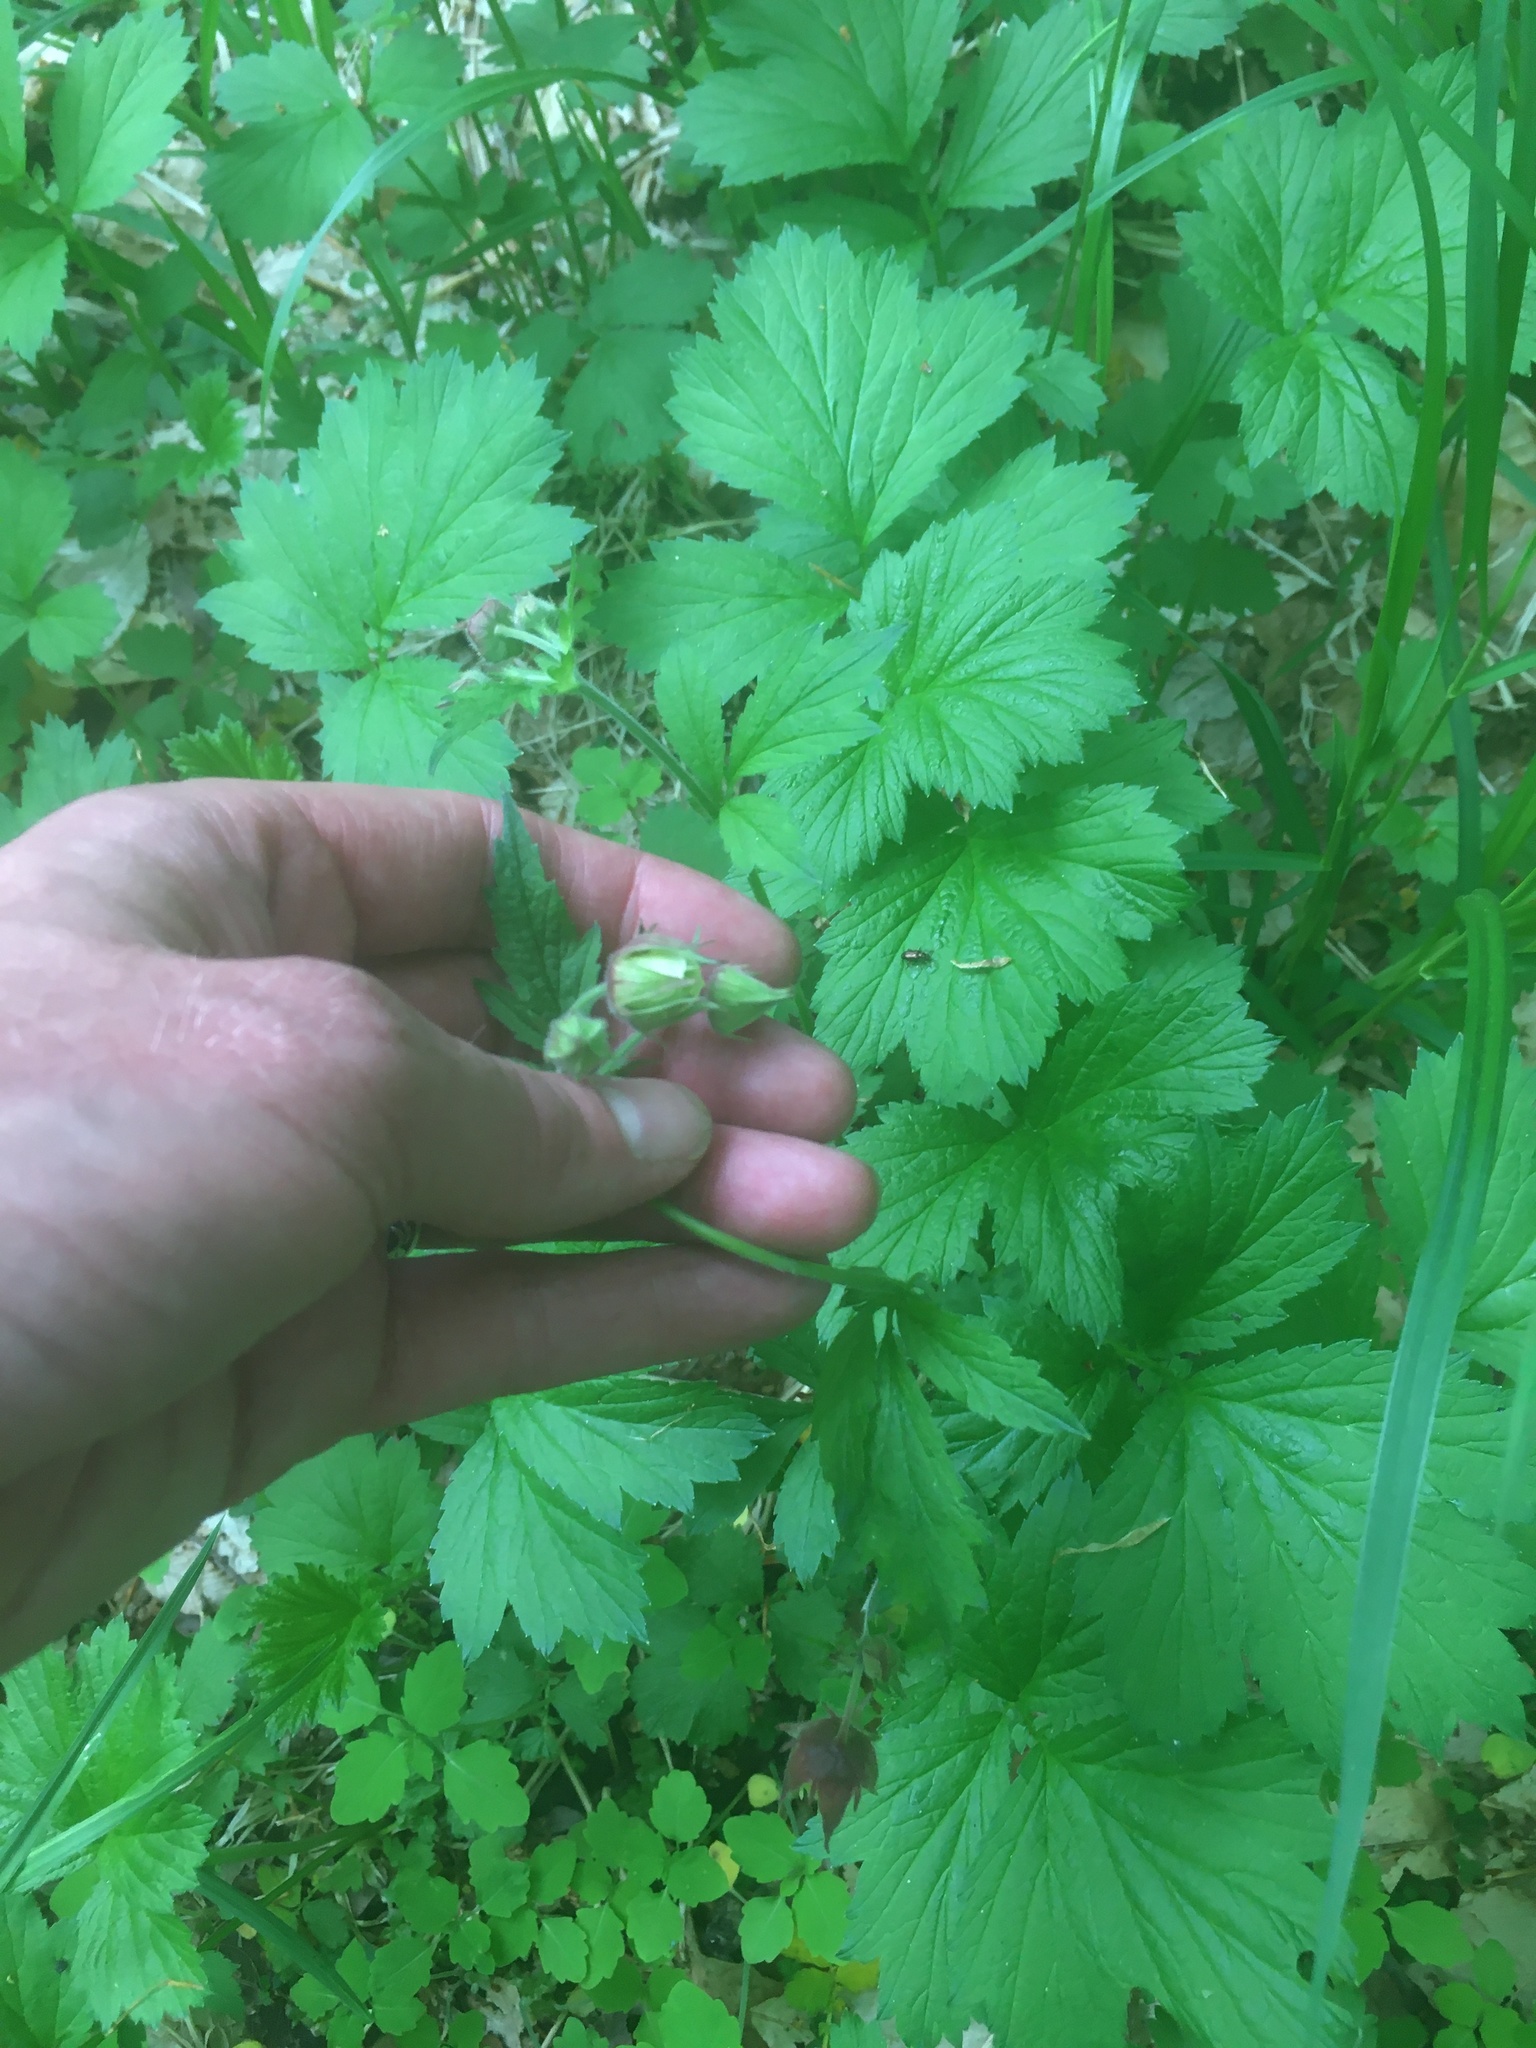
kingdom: Plantae
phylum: Tracheophyta
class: Magnoliopsida
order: Rosales
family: Rosaceae
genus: Geum
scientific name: Geum rivale
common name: Water avens
